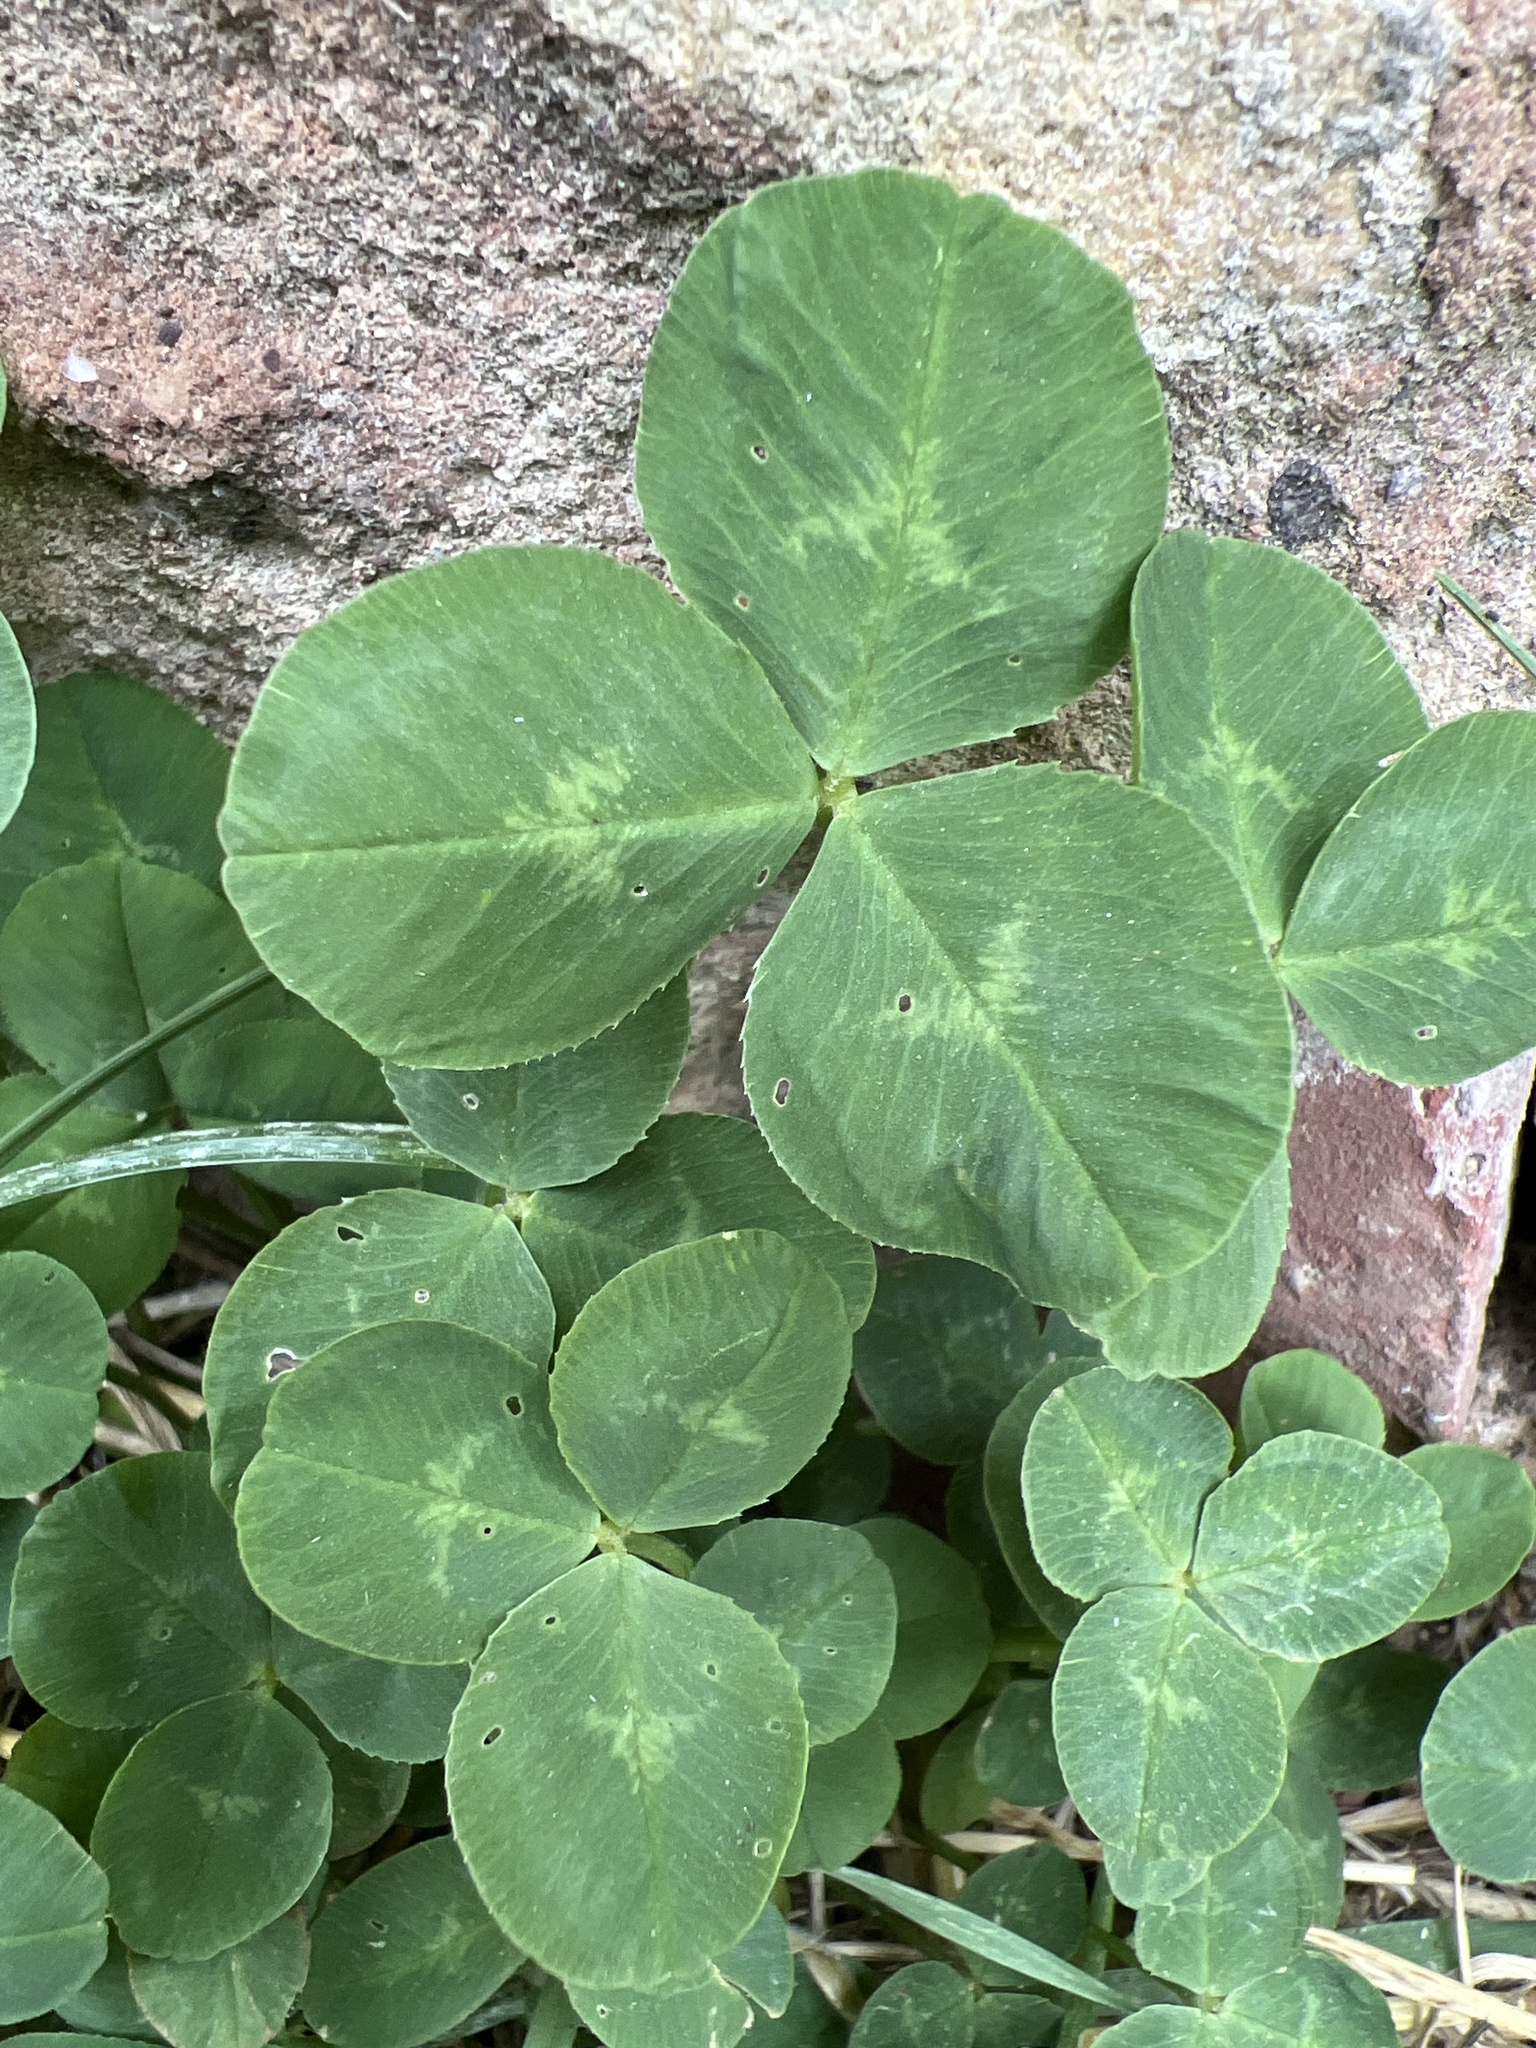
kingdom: Plantae
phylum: Tracheophyta
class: Magnoliopsida
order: Fabales
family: Fabaceae
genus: Trifolium
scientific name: Trifolium repens
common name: White clover
